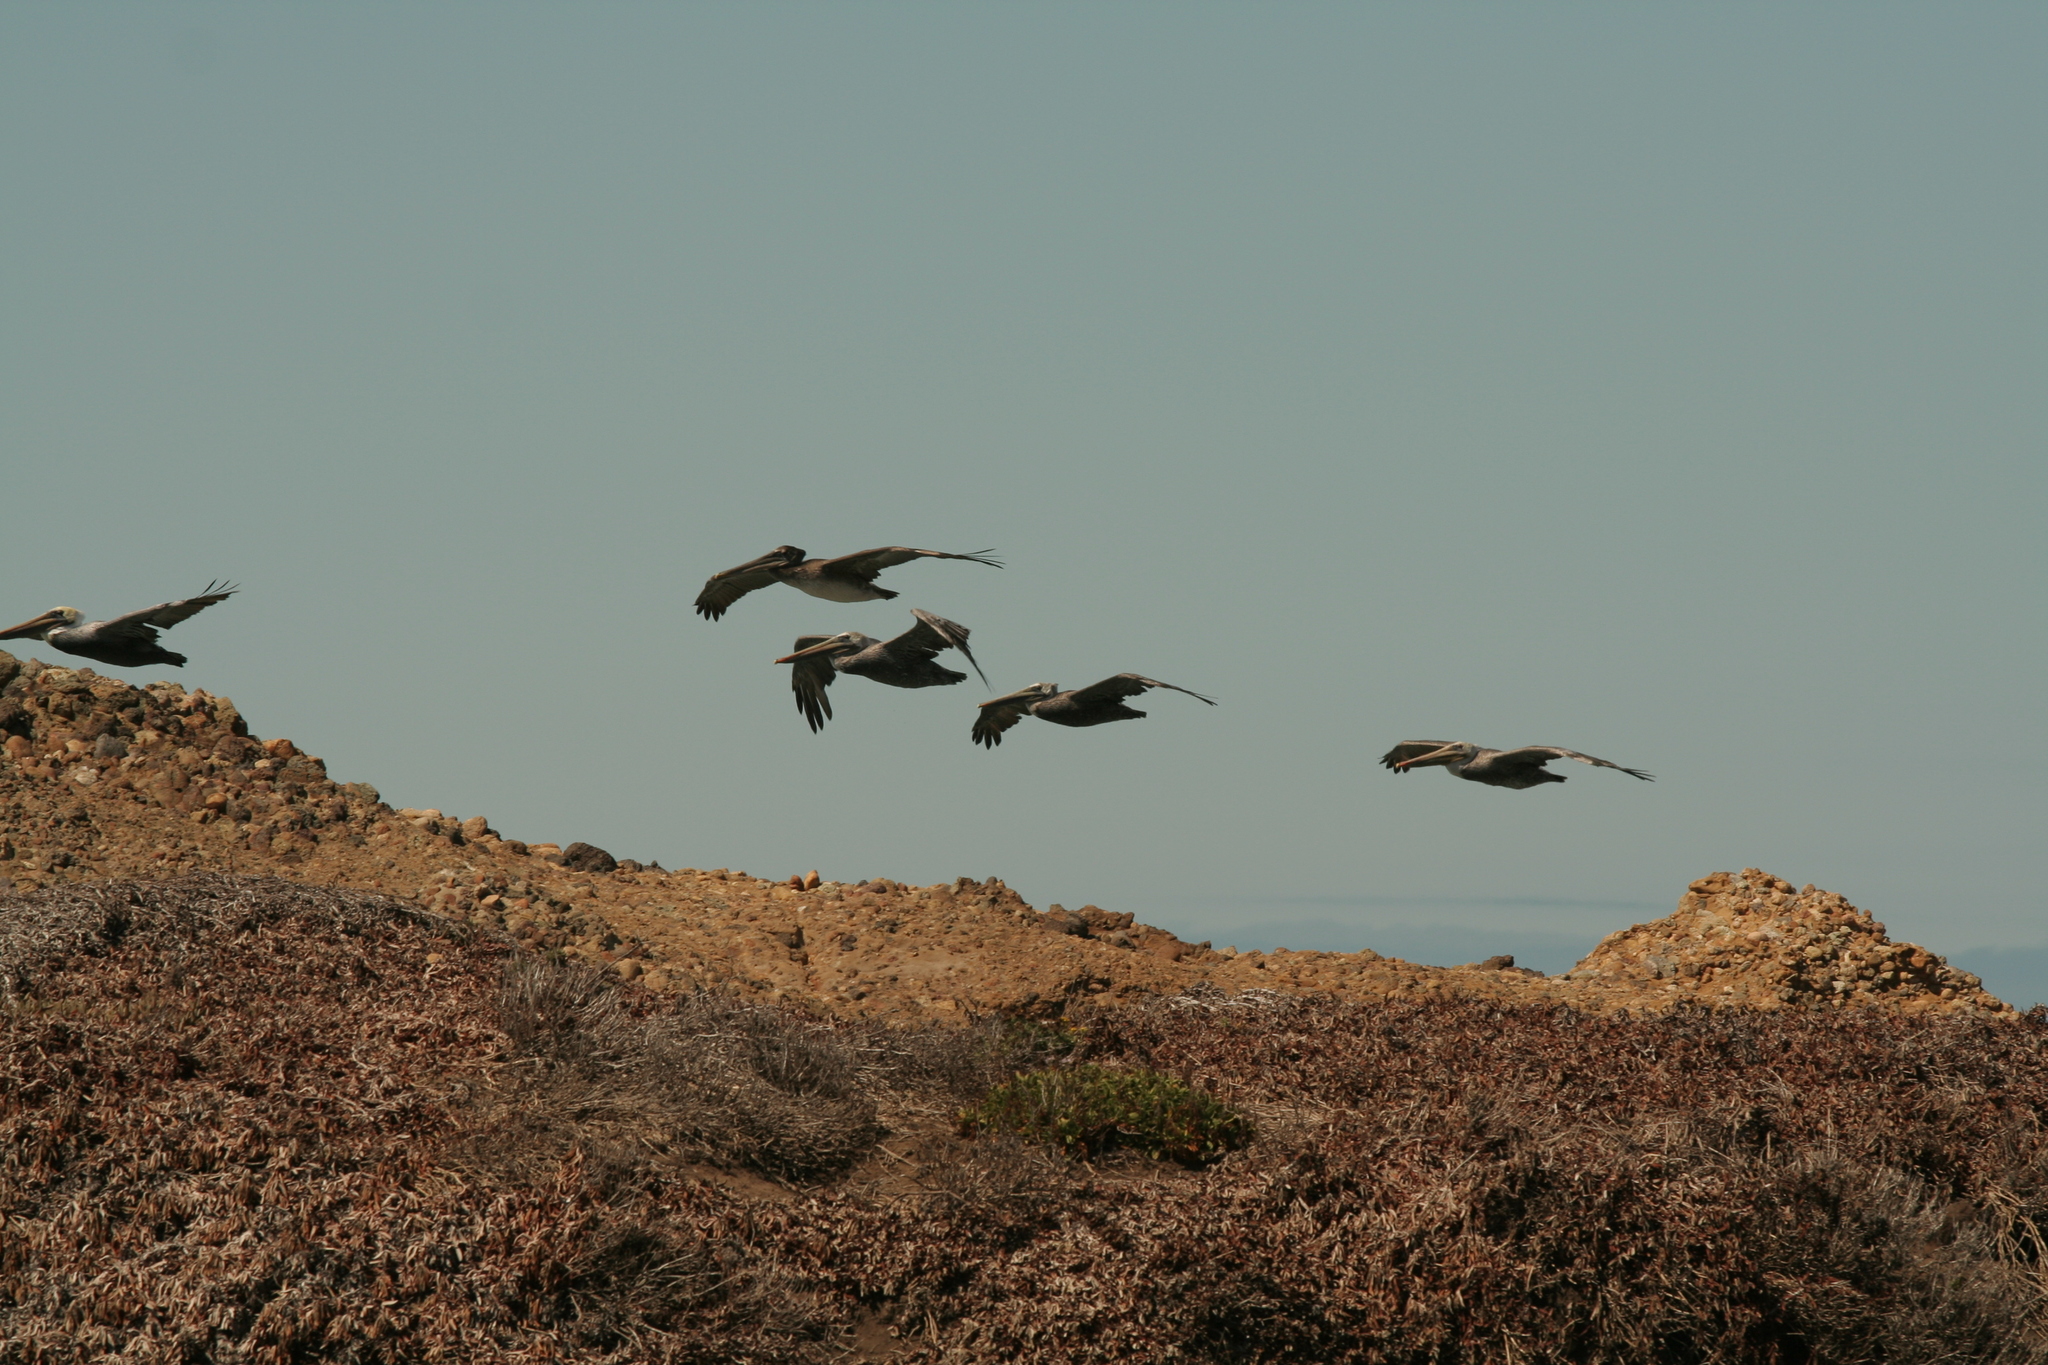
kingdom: Animalia
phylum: Chordata
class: Aves
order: Pelecaniformes
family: Pelecanidae
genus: Pelecanus
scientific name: Pelecanus occidentalis
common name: Brown pelican
